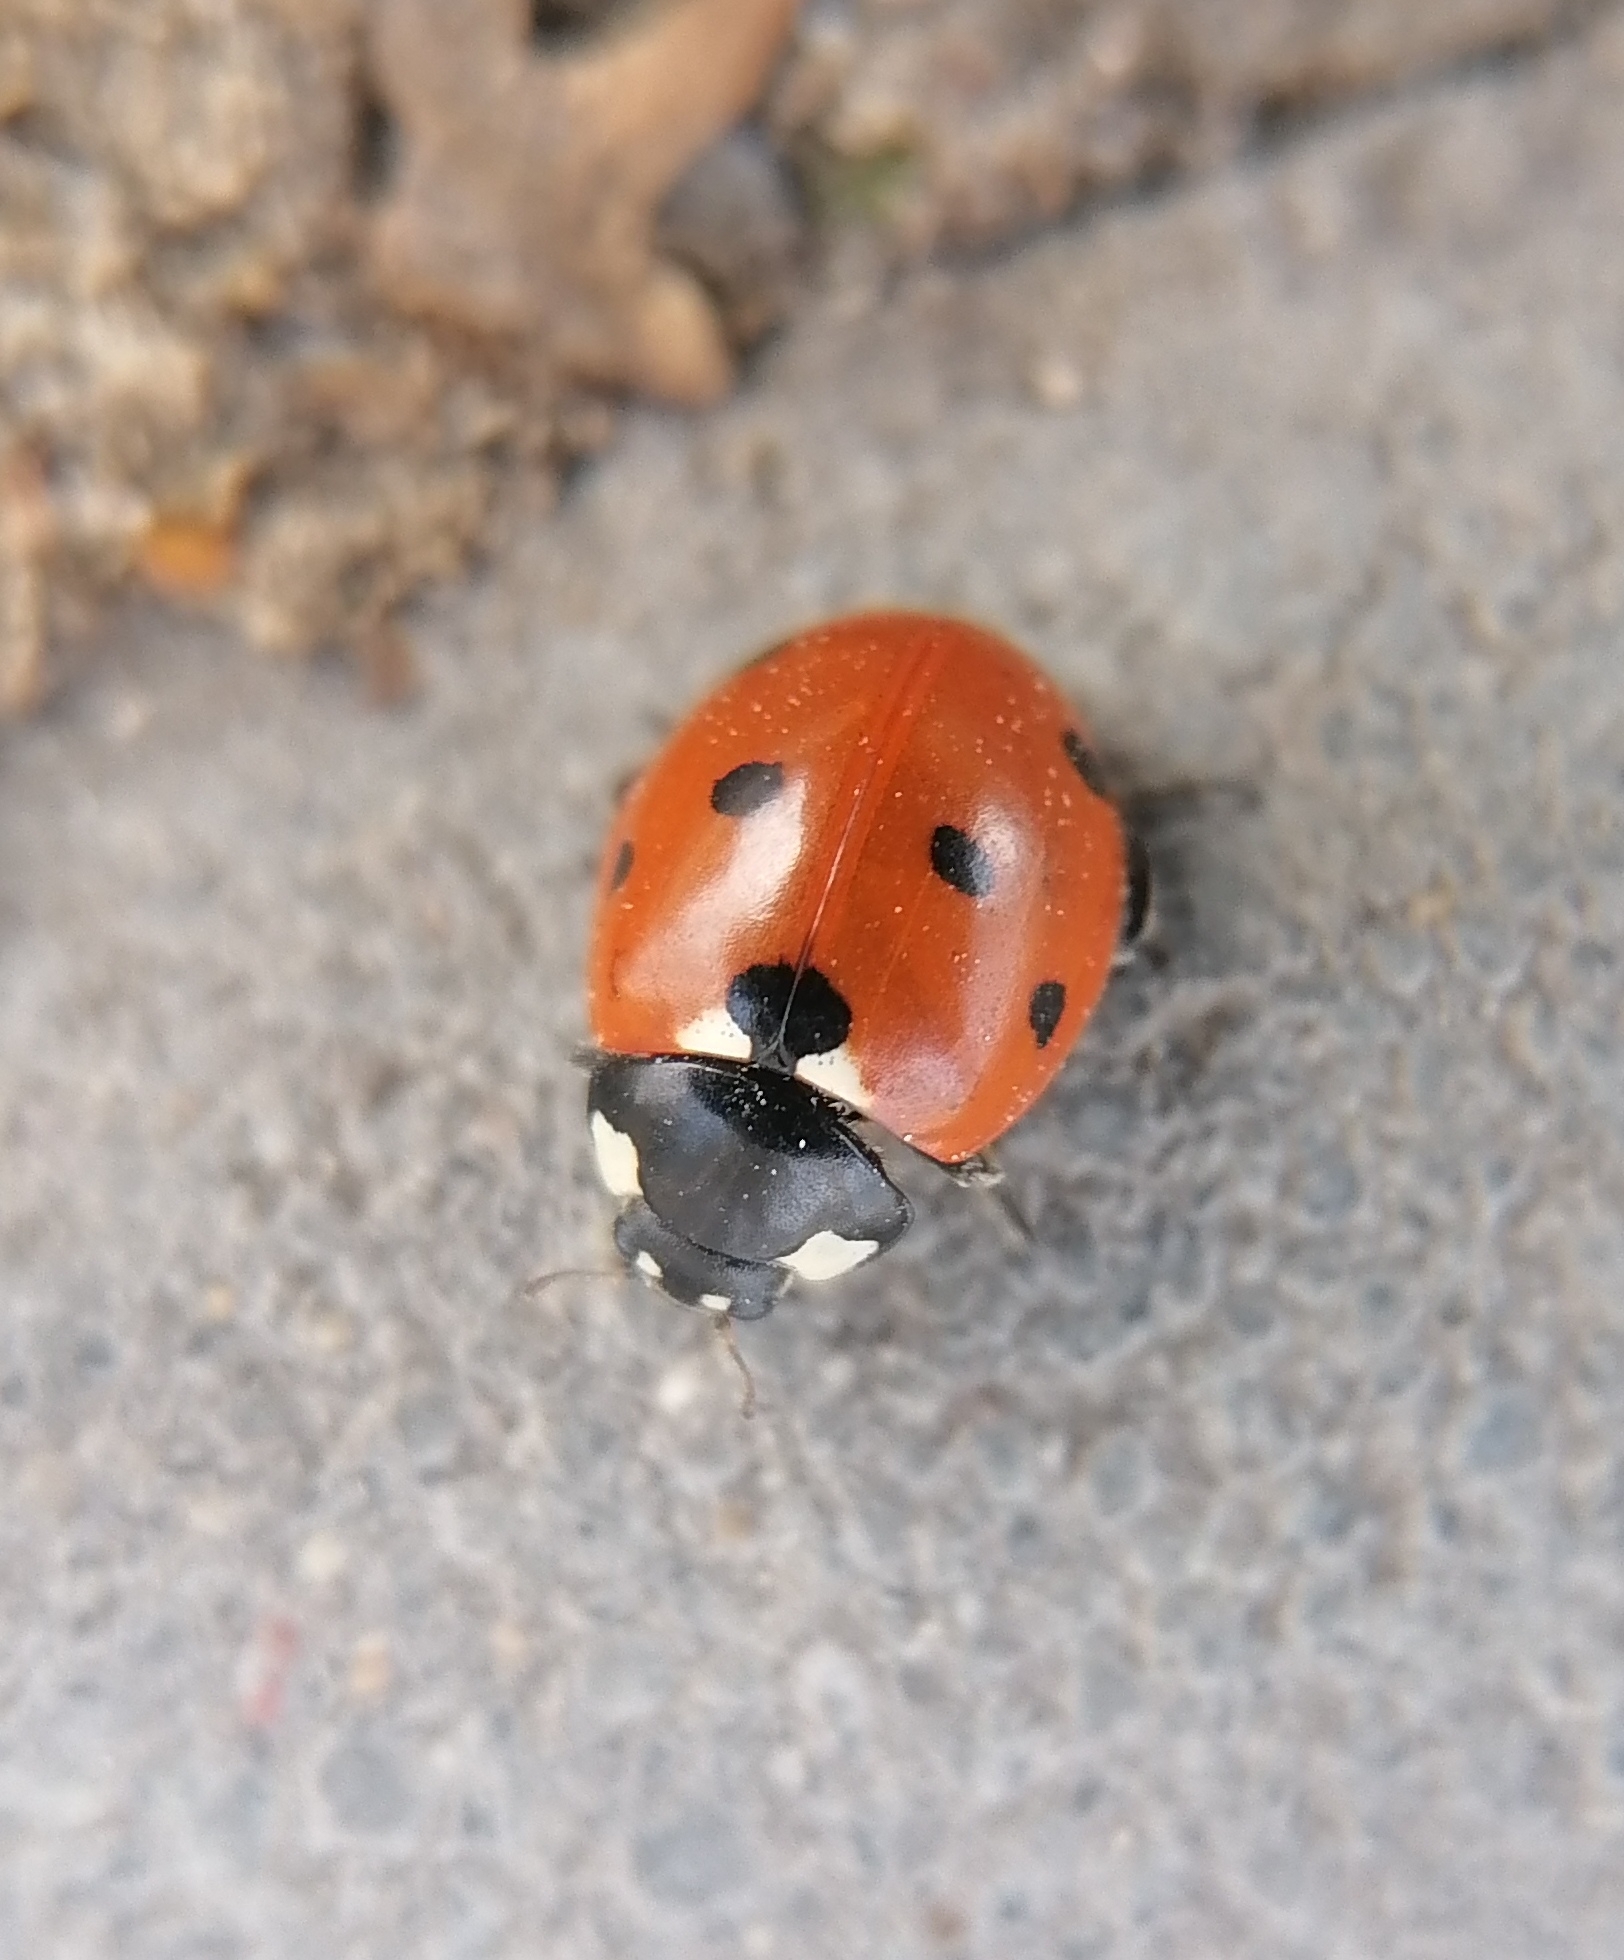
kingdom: Animalia
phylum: Arthropoda
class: Insecta
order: Coleoptera
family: Coccinellidae
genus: Coccinella
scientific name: Coccinella septempunctata
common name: Sevenspotted lady beetle
